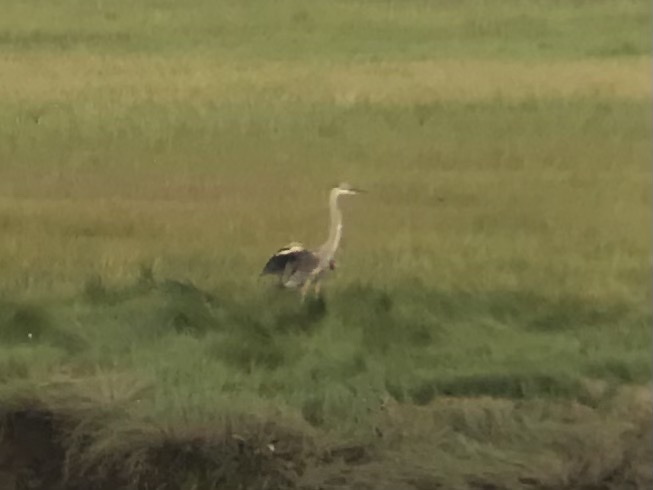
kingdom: Animalia
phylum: Chordata
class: Aves
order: Pelecaniformes
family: Ardeidae
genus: Ardea
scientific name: Ardea herodias
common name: Great blue heron
